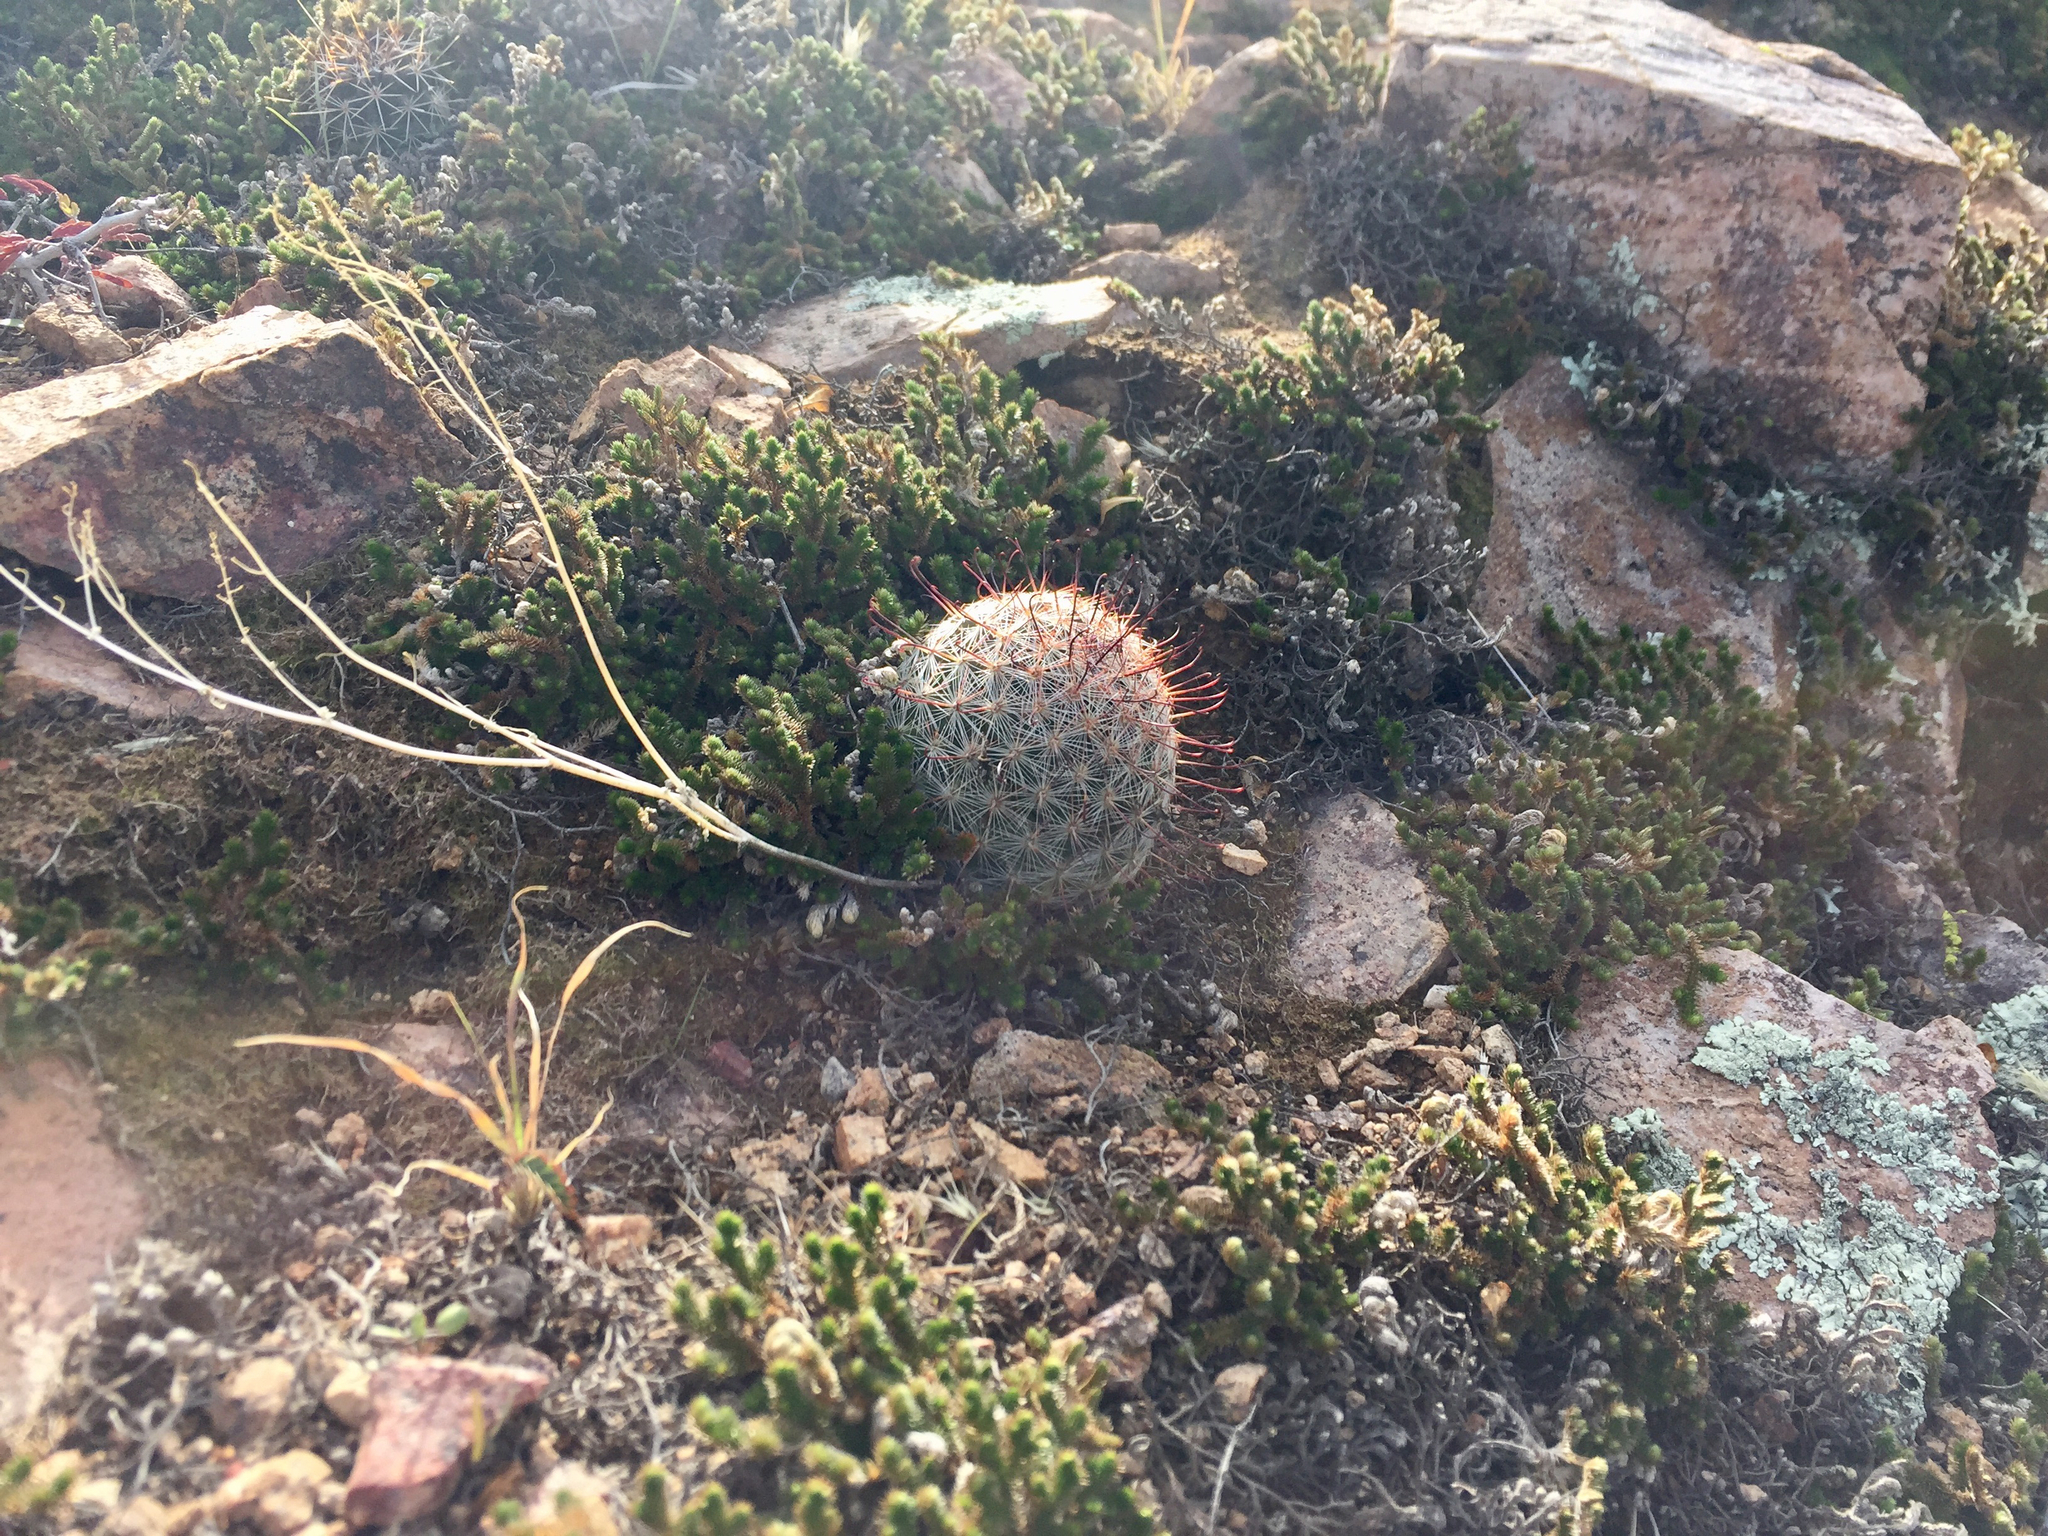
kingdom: Plantae
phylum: Tracheophyta
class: Magnoliopsida
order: Caryophyllales
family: Cactaceae
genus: Cochemiea
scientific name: Cochemiea grahamii
